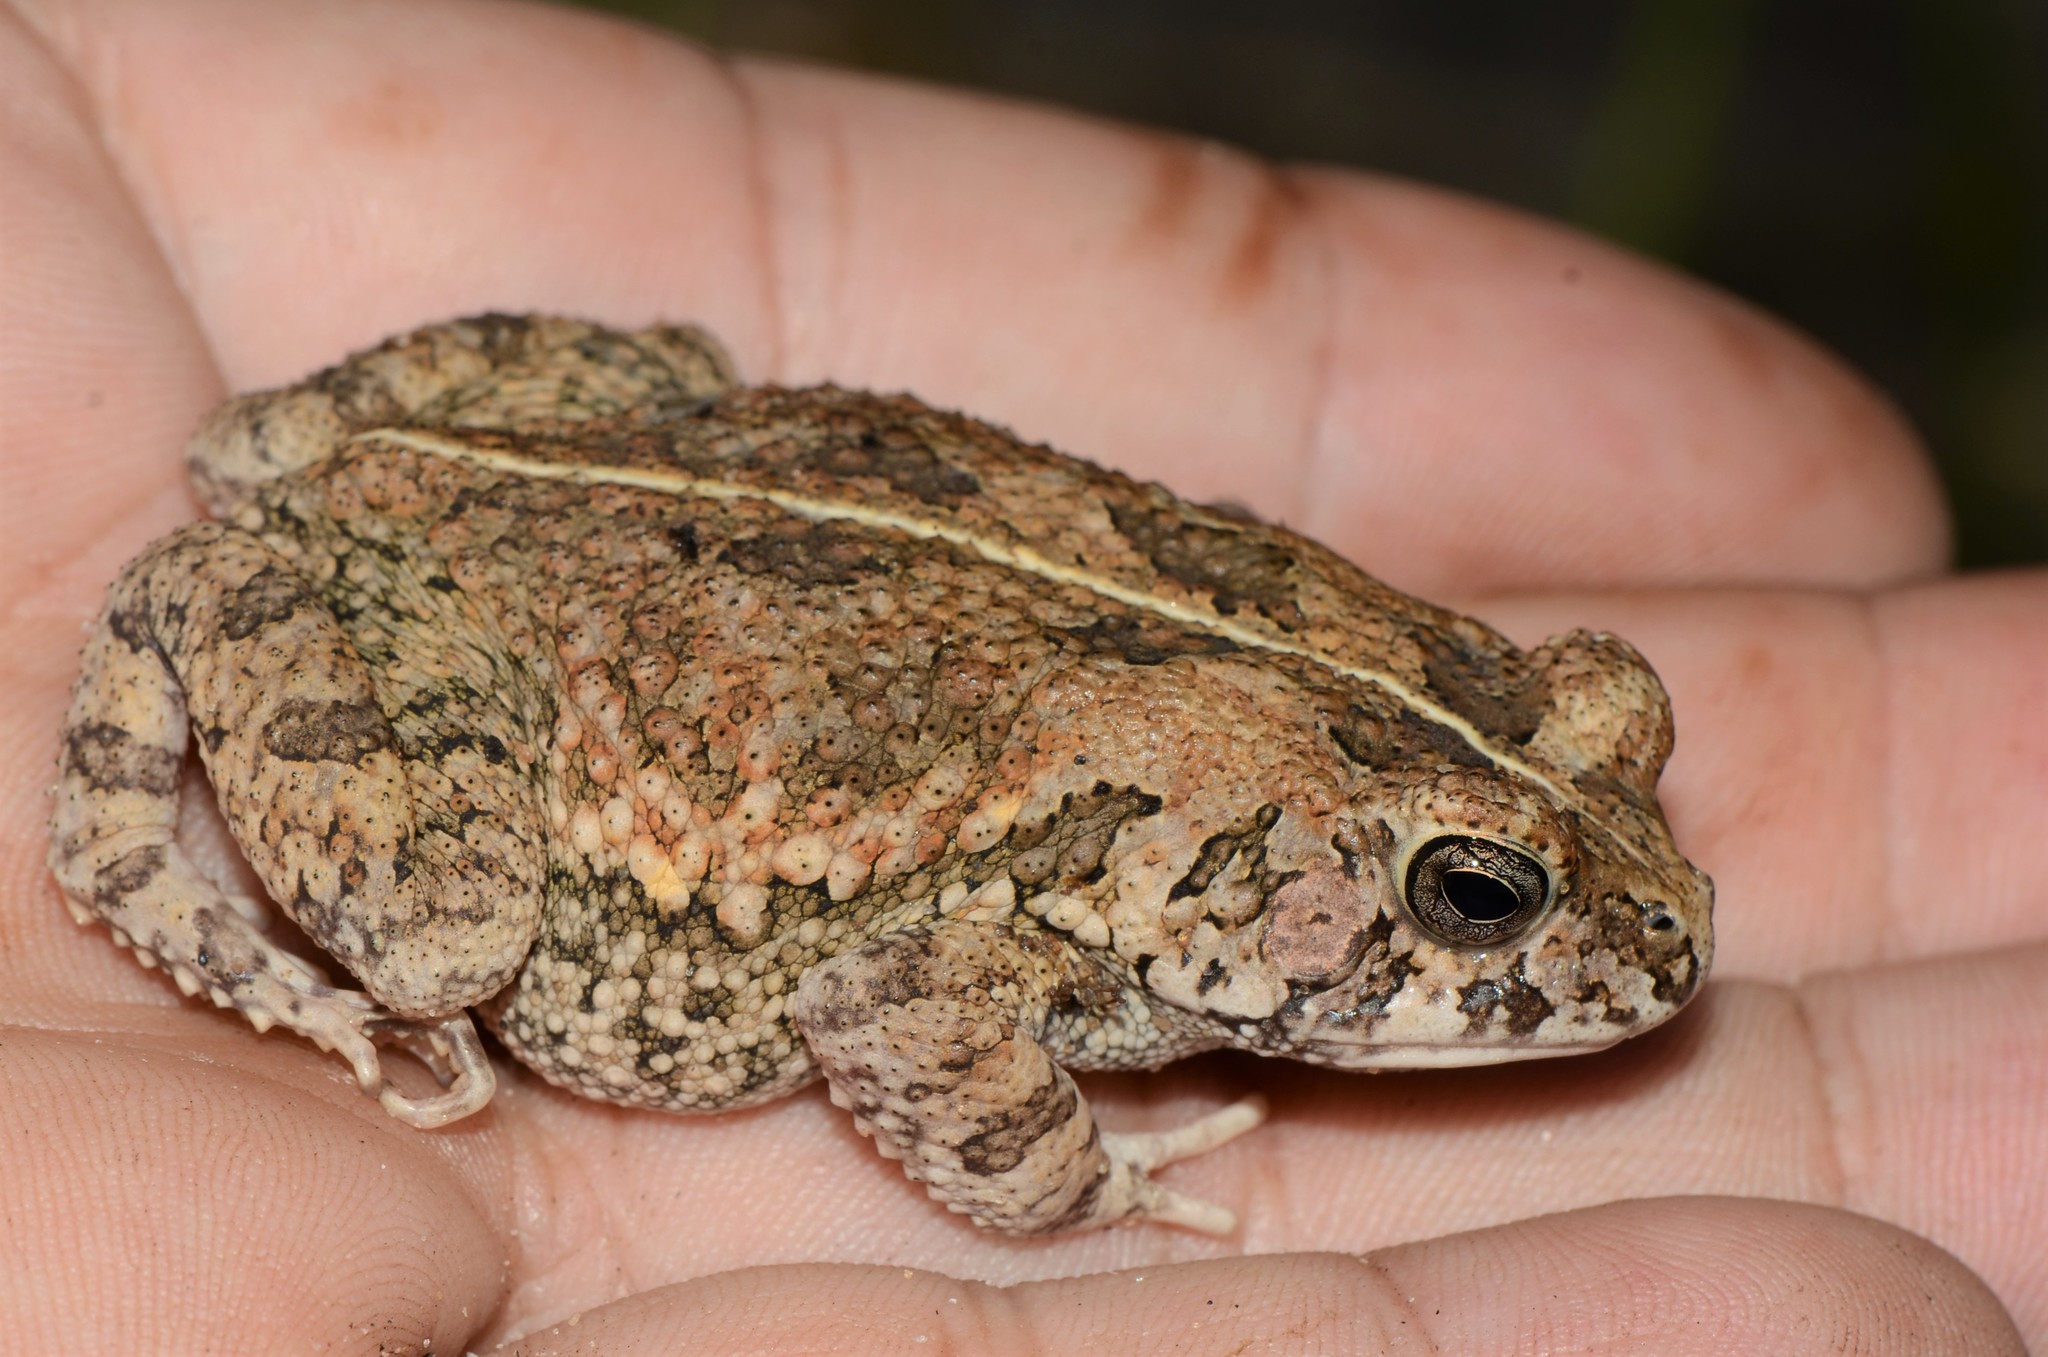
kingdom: Animalia
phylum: Chordata
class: Amphibia
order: Anura
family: Bufonidae
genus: Sclerophrys
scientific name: Sclerophrys pusilla
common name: Merten's striped toad
